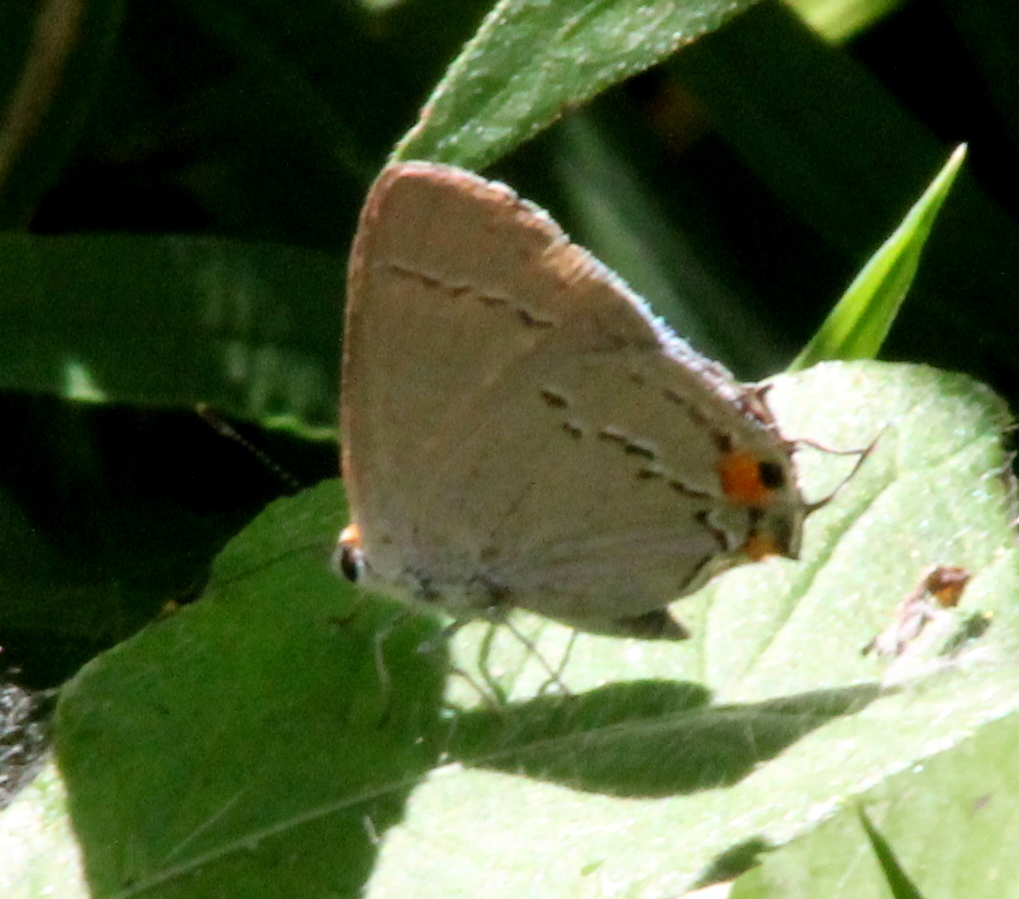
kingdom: Animalia
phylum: Arthropoda
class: Insecta
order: Lepidoptera
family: Lycaenidae
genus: Strymon
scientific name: Strymon melinus
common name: Gray hairstreak
